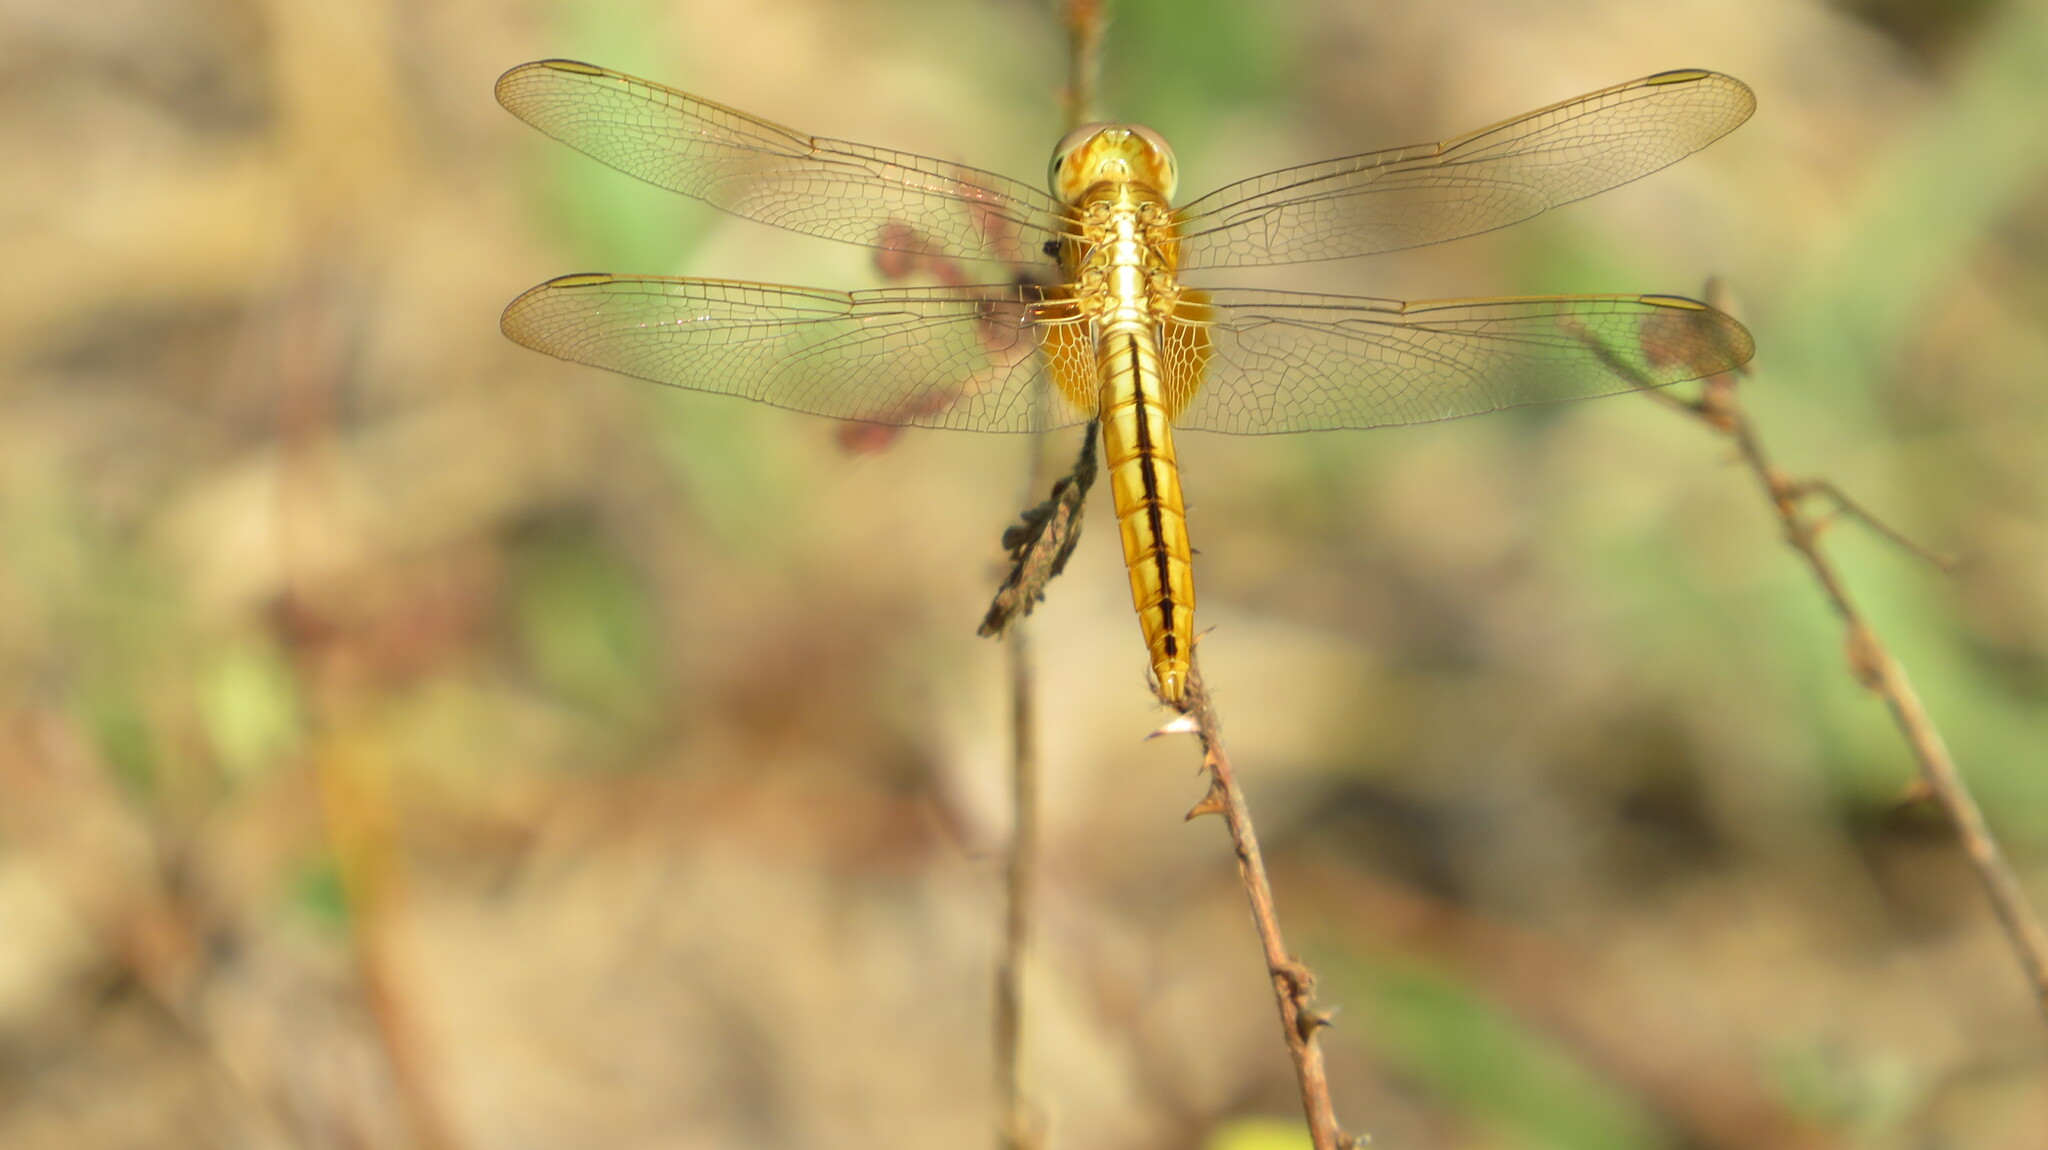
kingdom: Animalia
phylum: Arthropoda
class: Insecta
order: Odonata
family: Libellulidae
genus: Crocothemis
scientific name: Crocothemis servilia
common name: Scarlet skimmer
